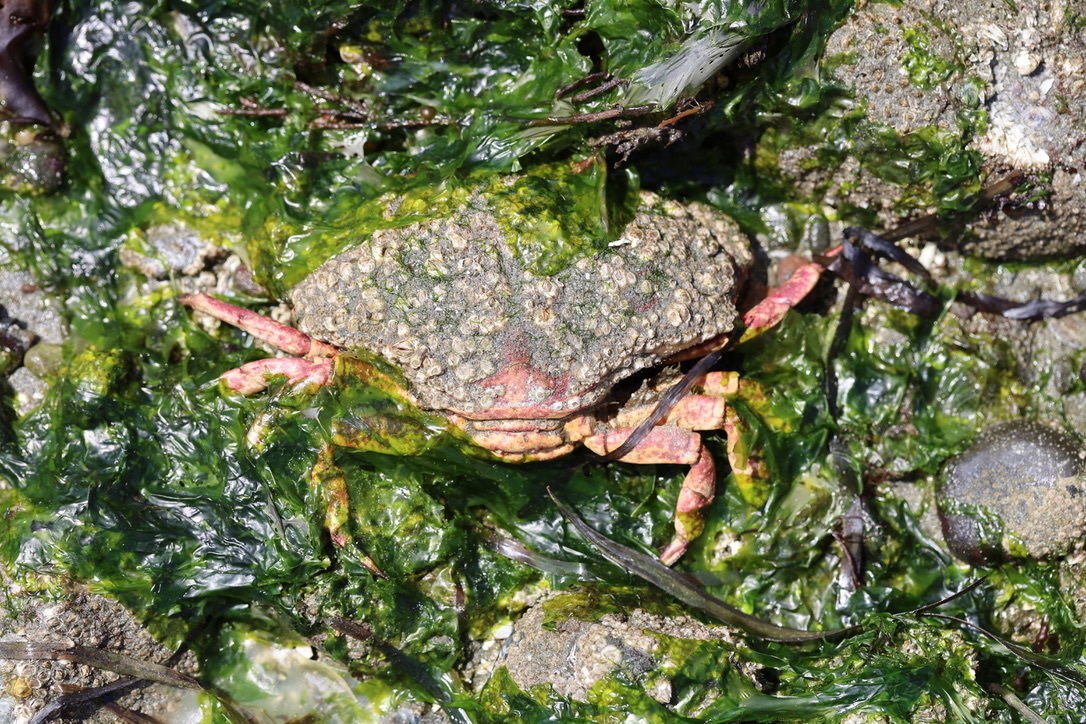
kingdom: Animalia
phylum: Arthropoda
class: Malacostraca
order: Decapoda
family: Cancridae
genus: Cancer
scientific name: Cancer productus
